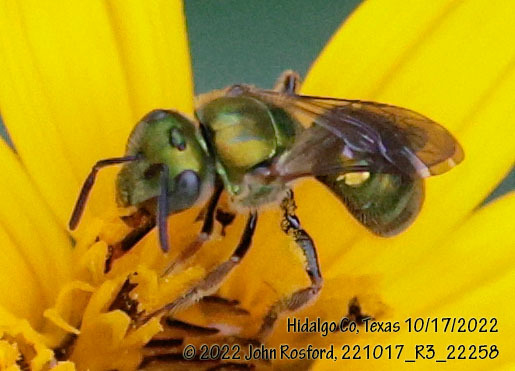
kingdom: Animalia
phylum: Arthropoda
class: Insecta
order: Hymenoptera
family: Halictidae
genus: Augochlora
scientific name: Augochlora aurifera
